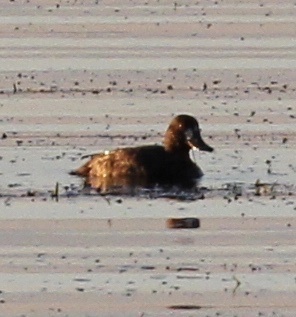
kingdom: Animalia
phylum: Chordata
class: Aves
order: Anseriformes
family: Anatidae
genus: Aythya
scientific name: Aythya
